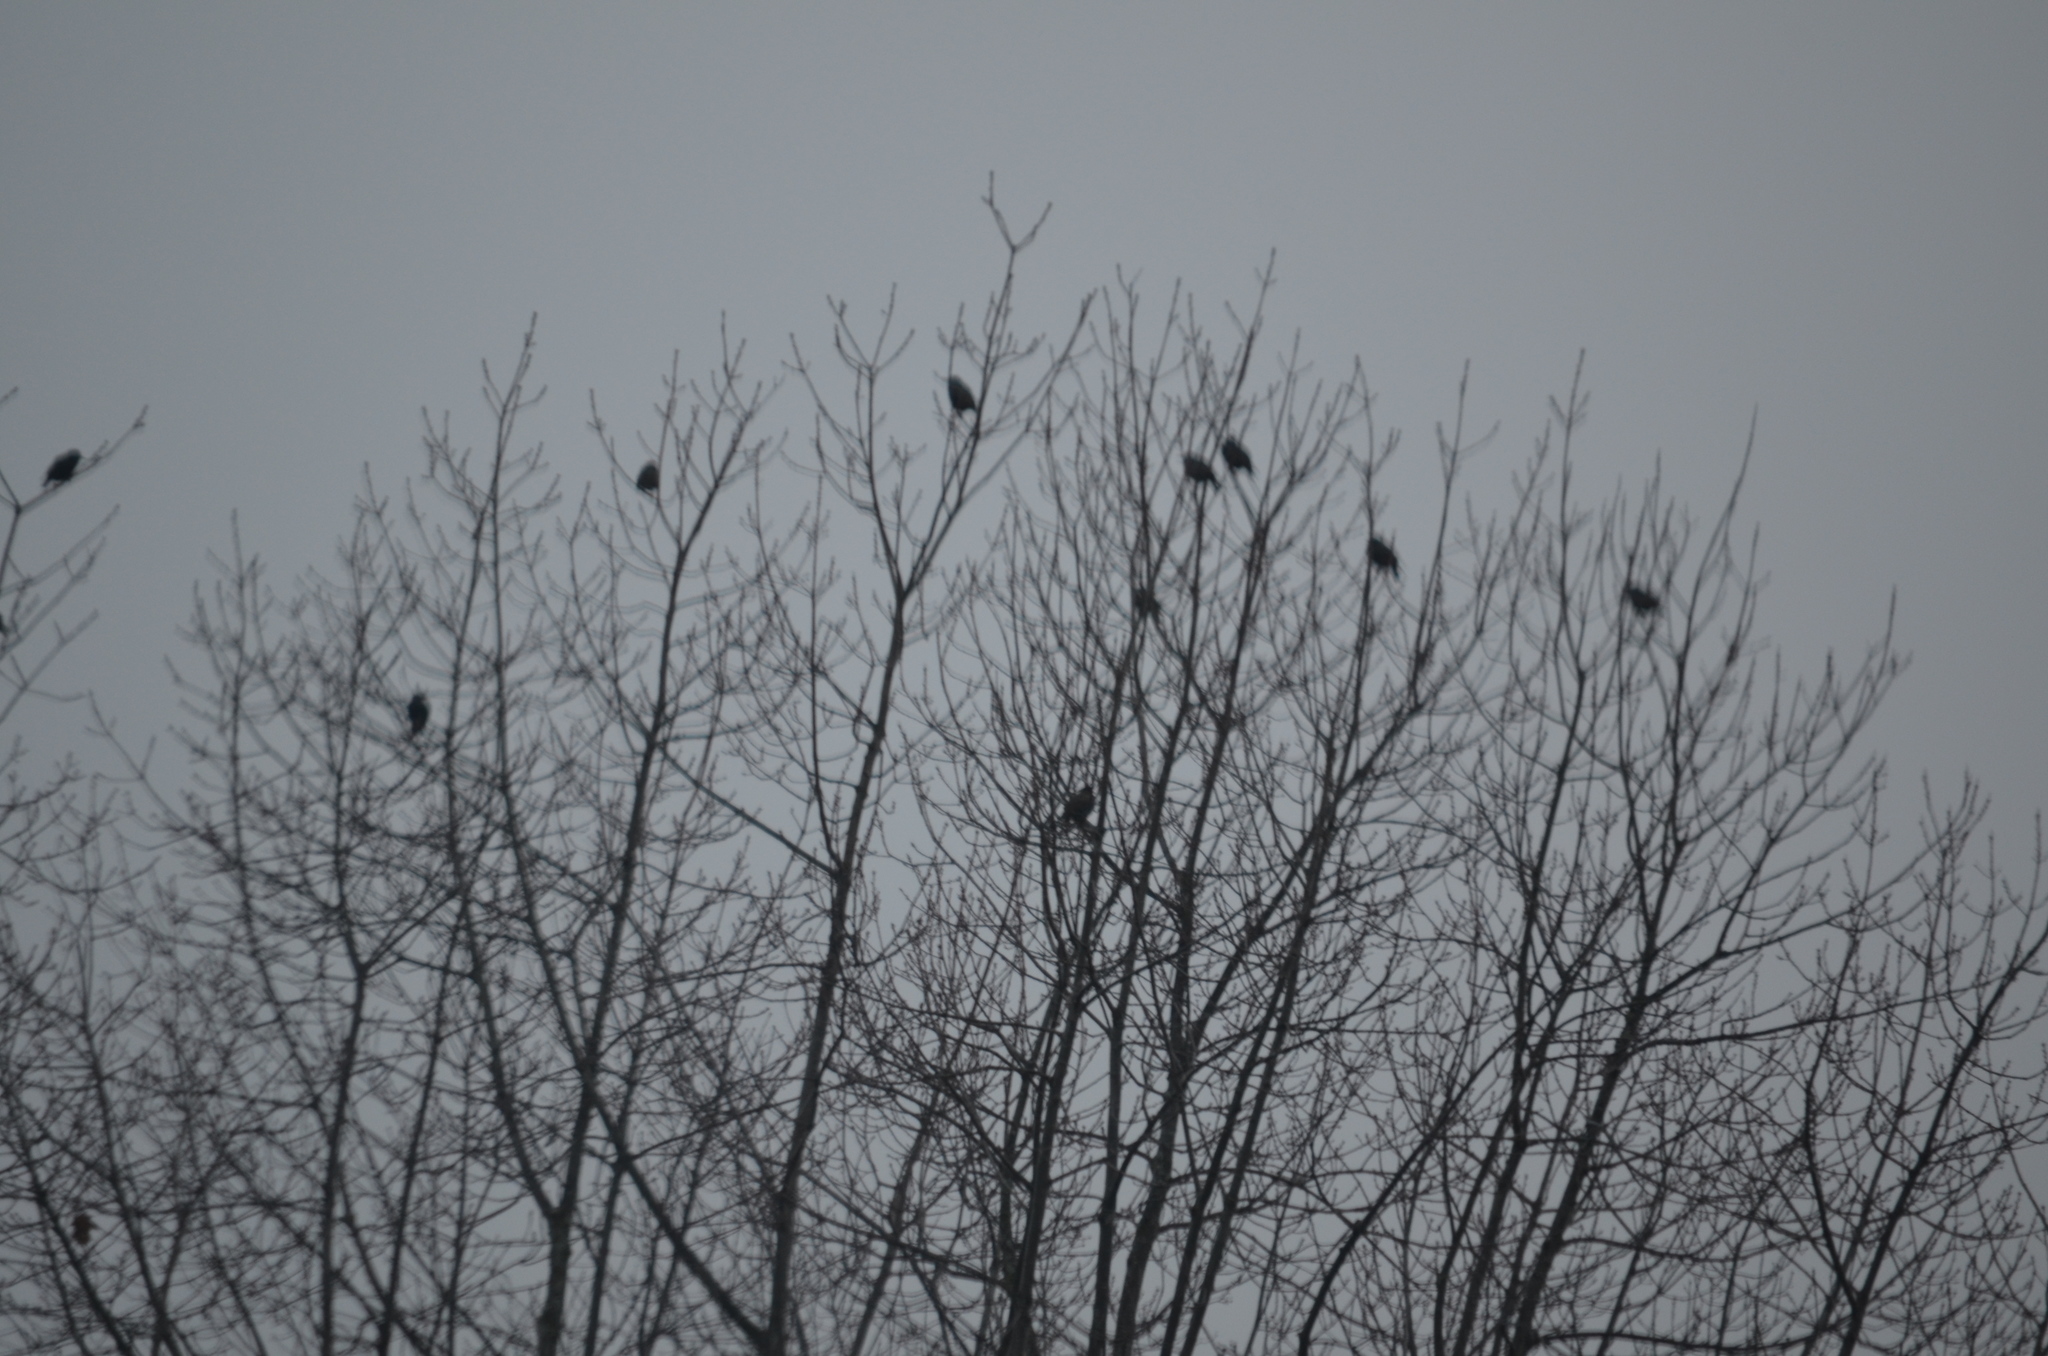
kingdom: Animalia
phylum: Chordata
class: Aves
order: Passeriformes
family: Sturnidae
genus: Sturnus
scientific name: Sturnus vulgaris
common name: Common starling
